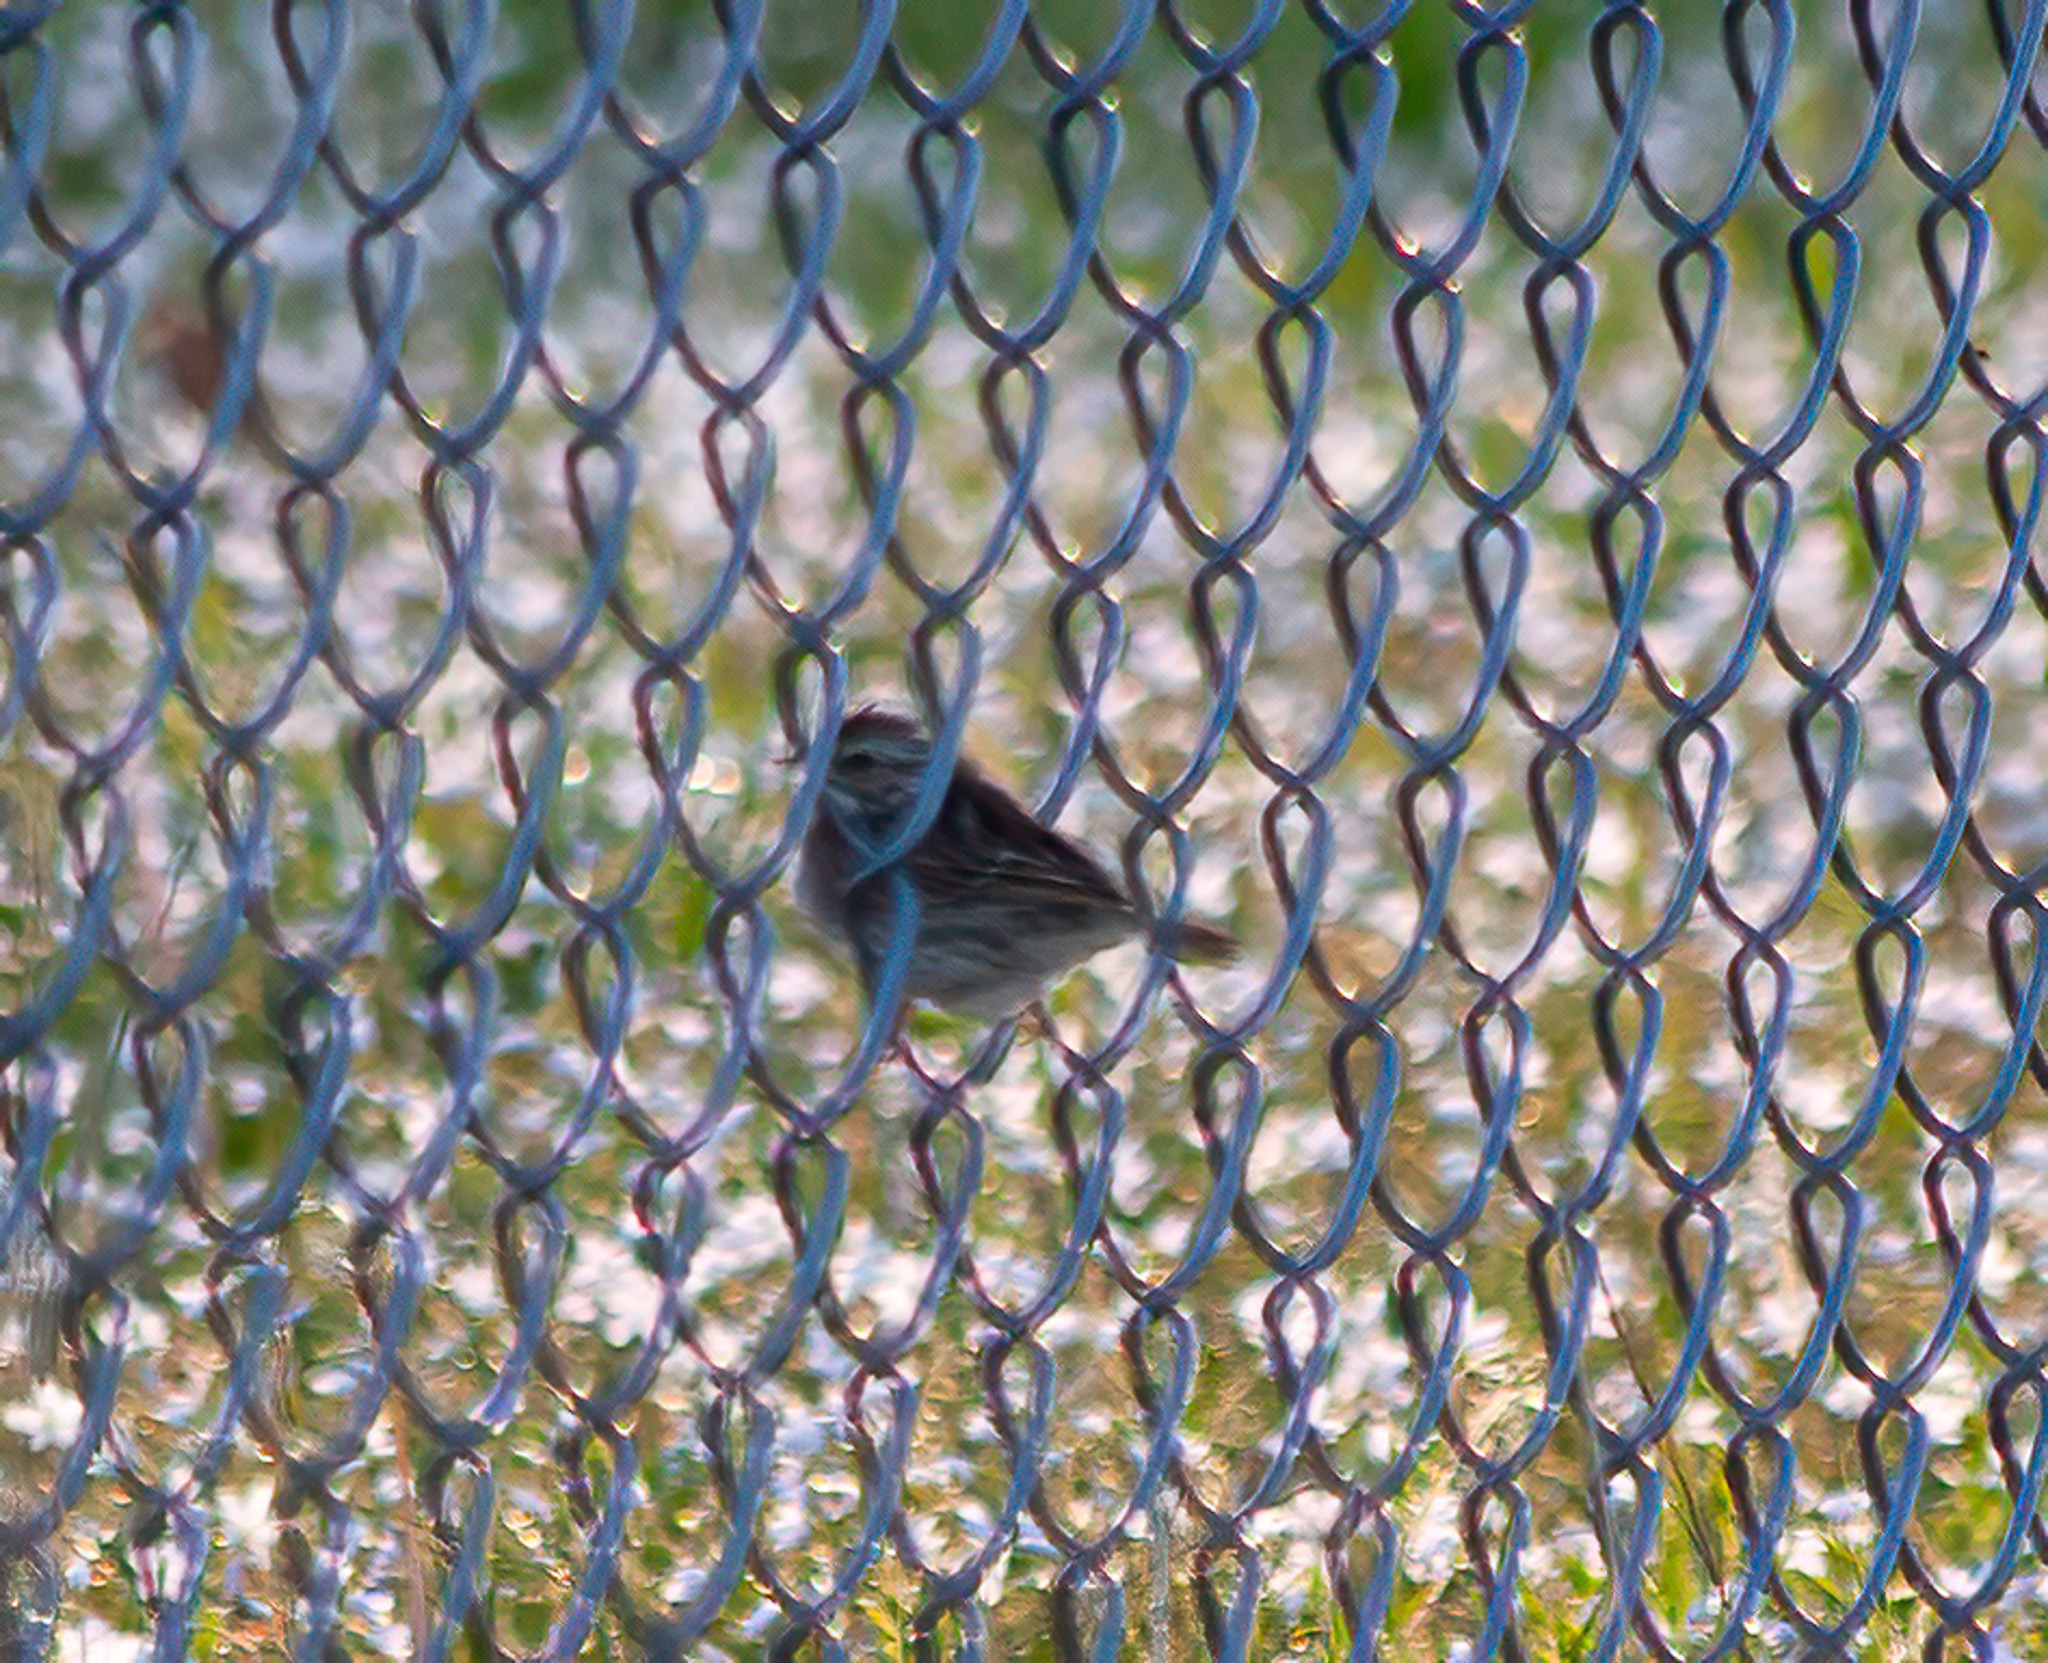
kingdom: Animalia
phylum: Chordata
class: Aves
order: Passeriformes
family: Passerellidae
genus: Passerculus
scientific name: Passerculus sandwichensis
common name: Savannah sparrow
